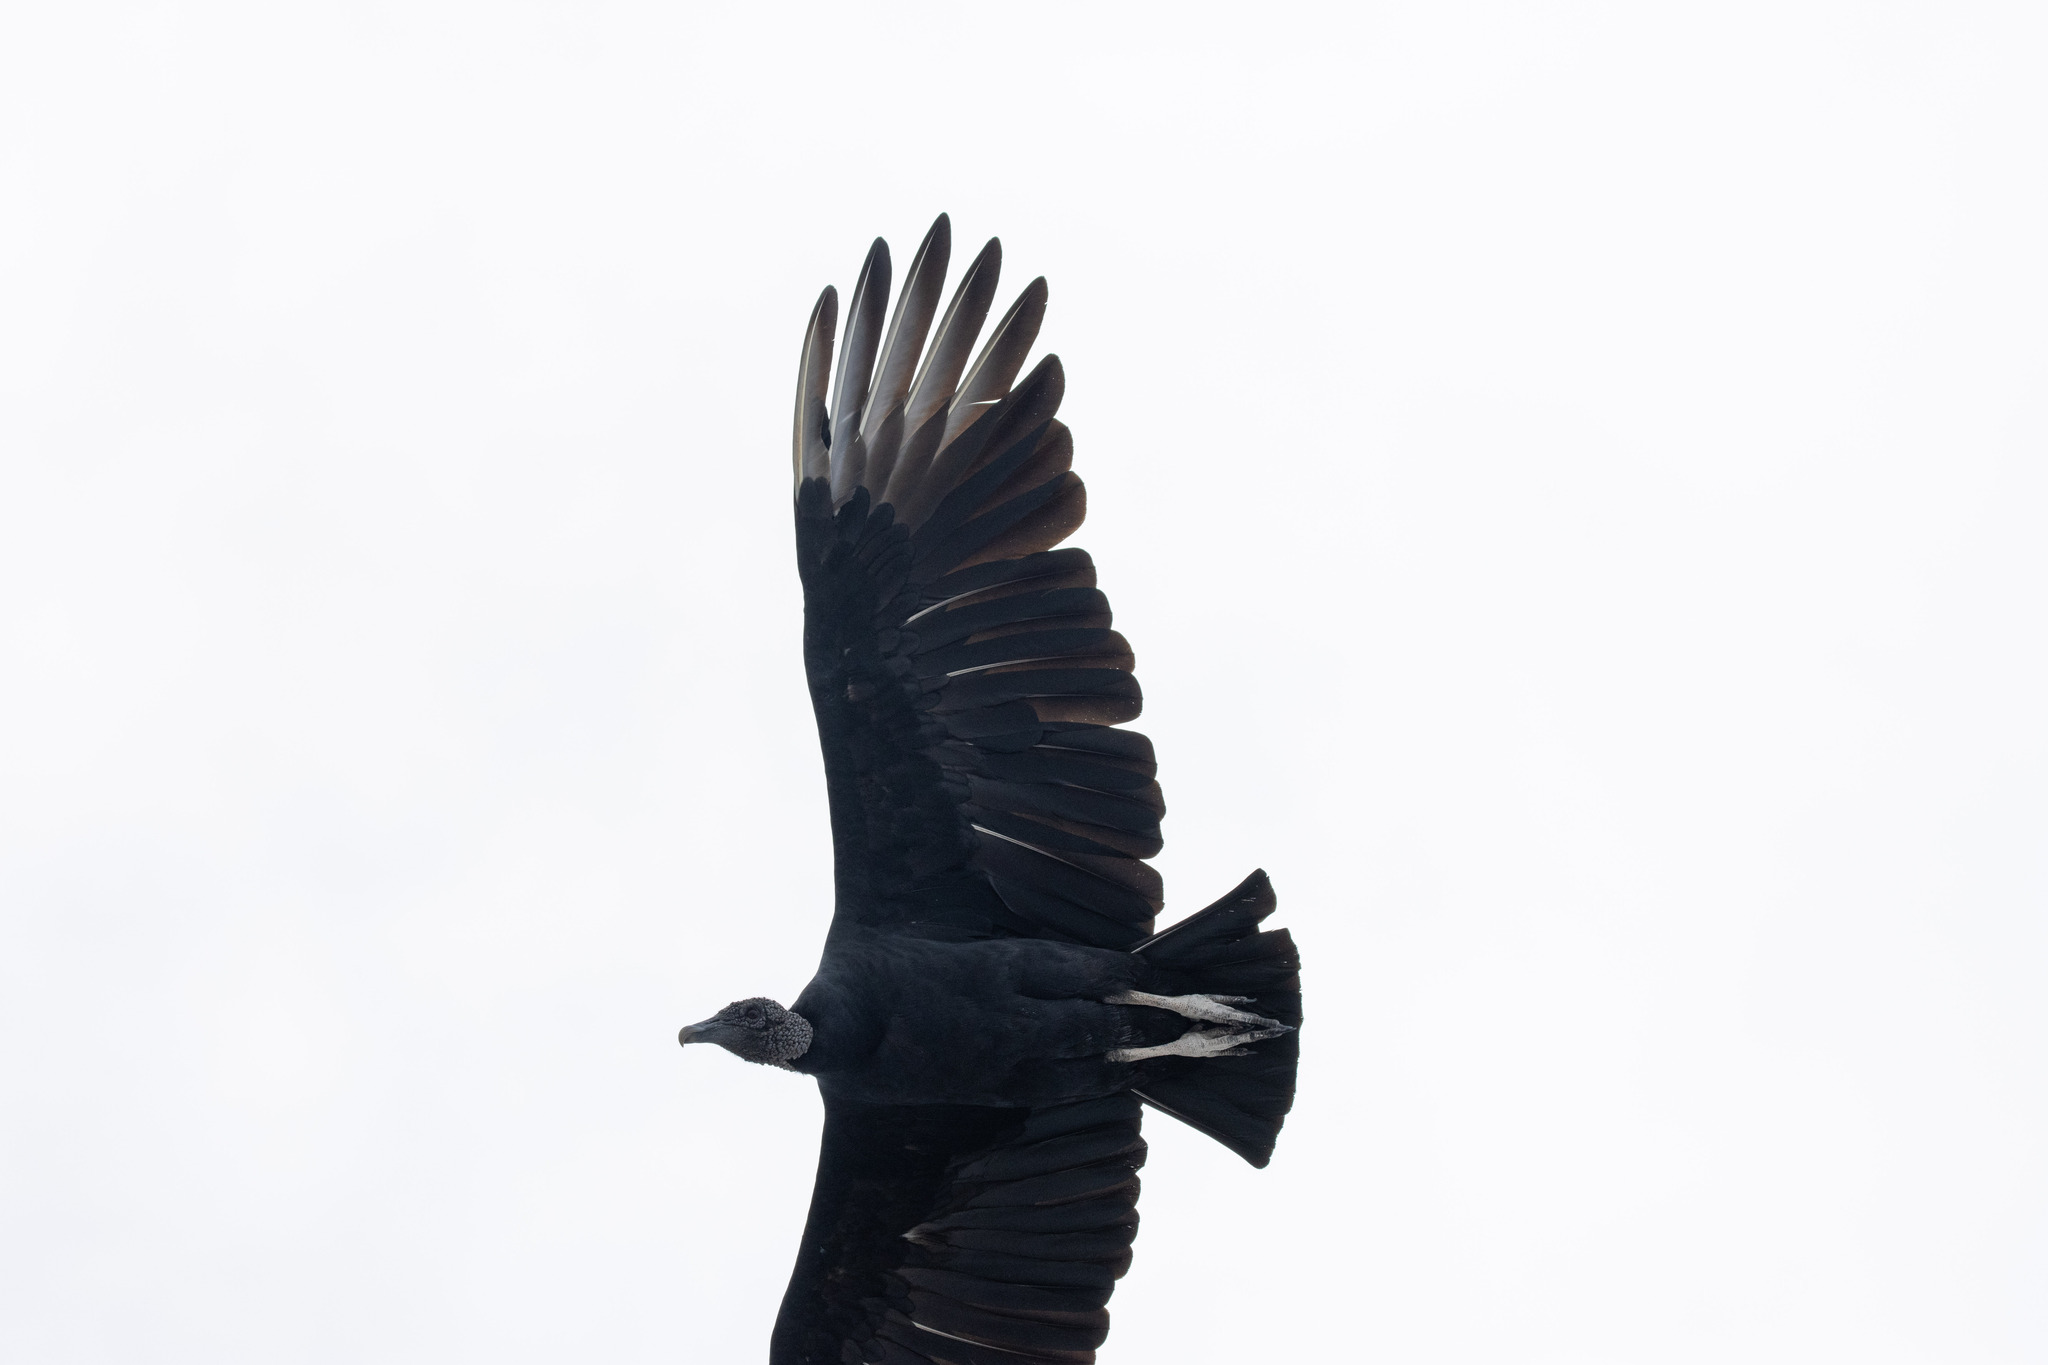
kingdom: Animalia
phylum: Chordata
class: Aves
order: Accipitriformes
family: Cathartidae
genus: Coragyps
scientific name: Coragyps atratus
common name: Black vulture
